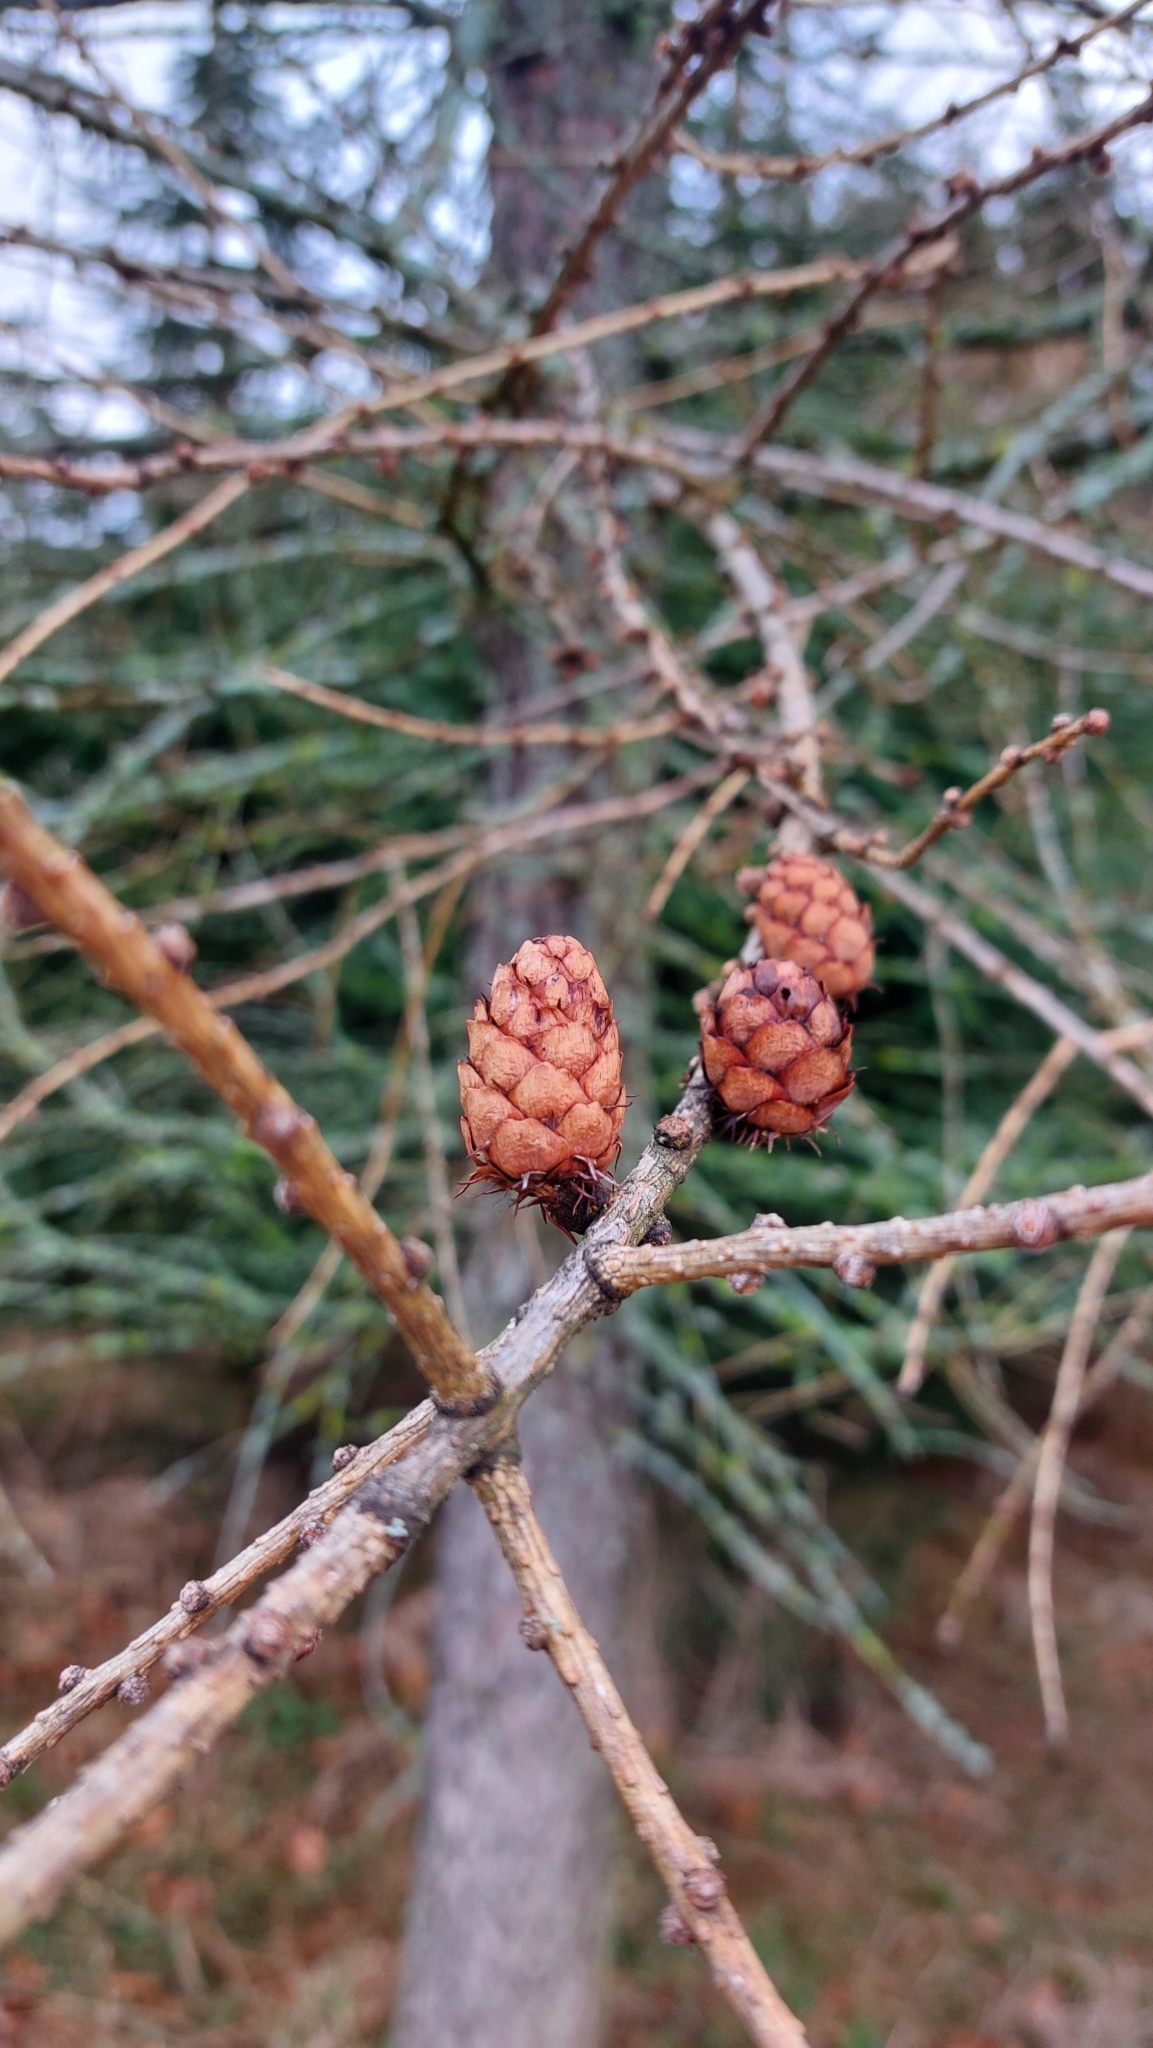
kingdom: Plantae
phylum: Tracheophyta
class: Pinopsida
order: Pinales
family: Pinaceae
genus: Larix
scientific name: Larix decidua
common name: European larch
